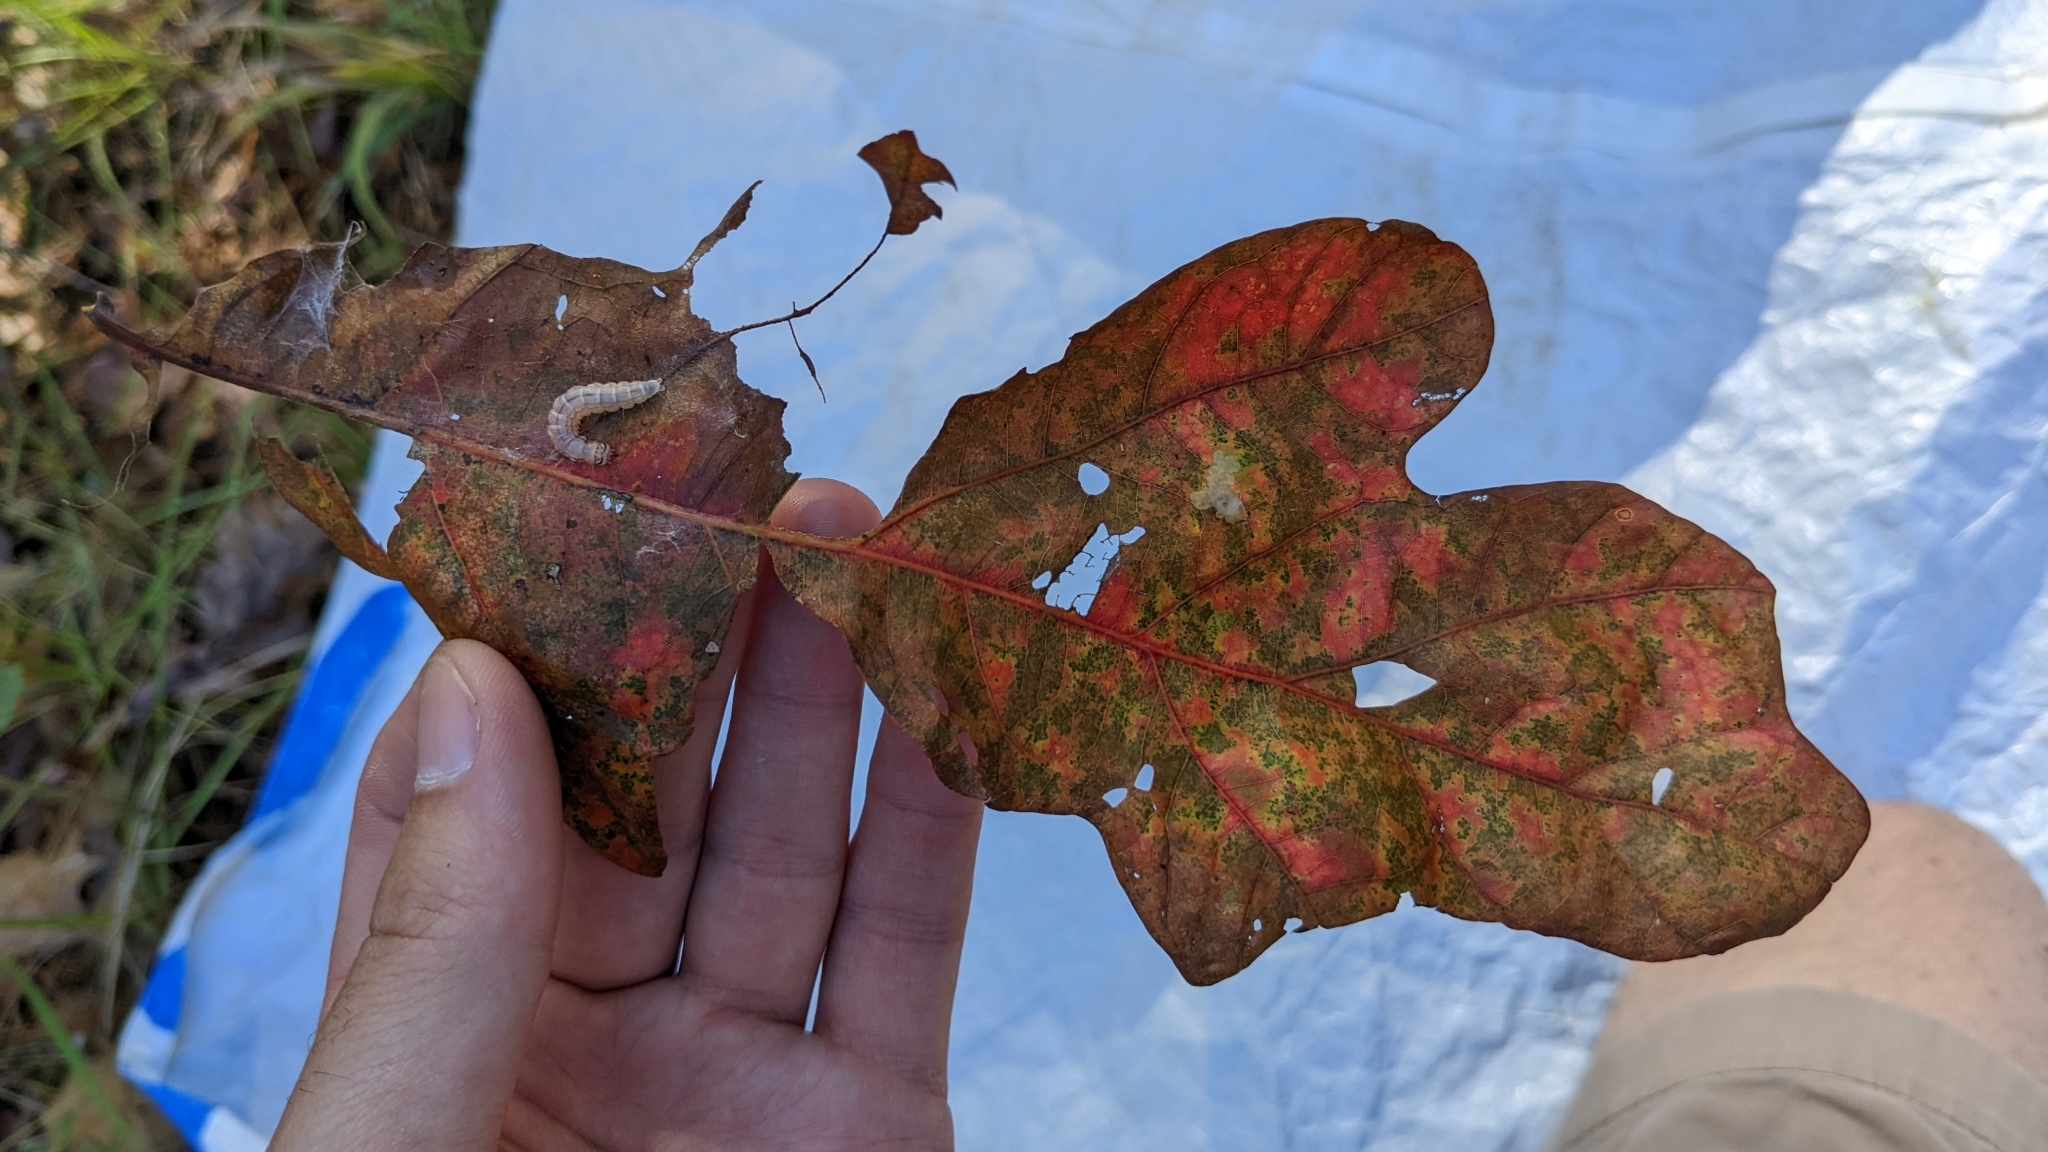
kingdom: Animalia
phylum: Arthropoda
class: Insecta
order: Lepidoptera
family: Depressariidae
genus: Antaeotricha
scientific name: Antaeotricha schlaegeri
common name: Schlaeger's fruitworm moth
